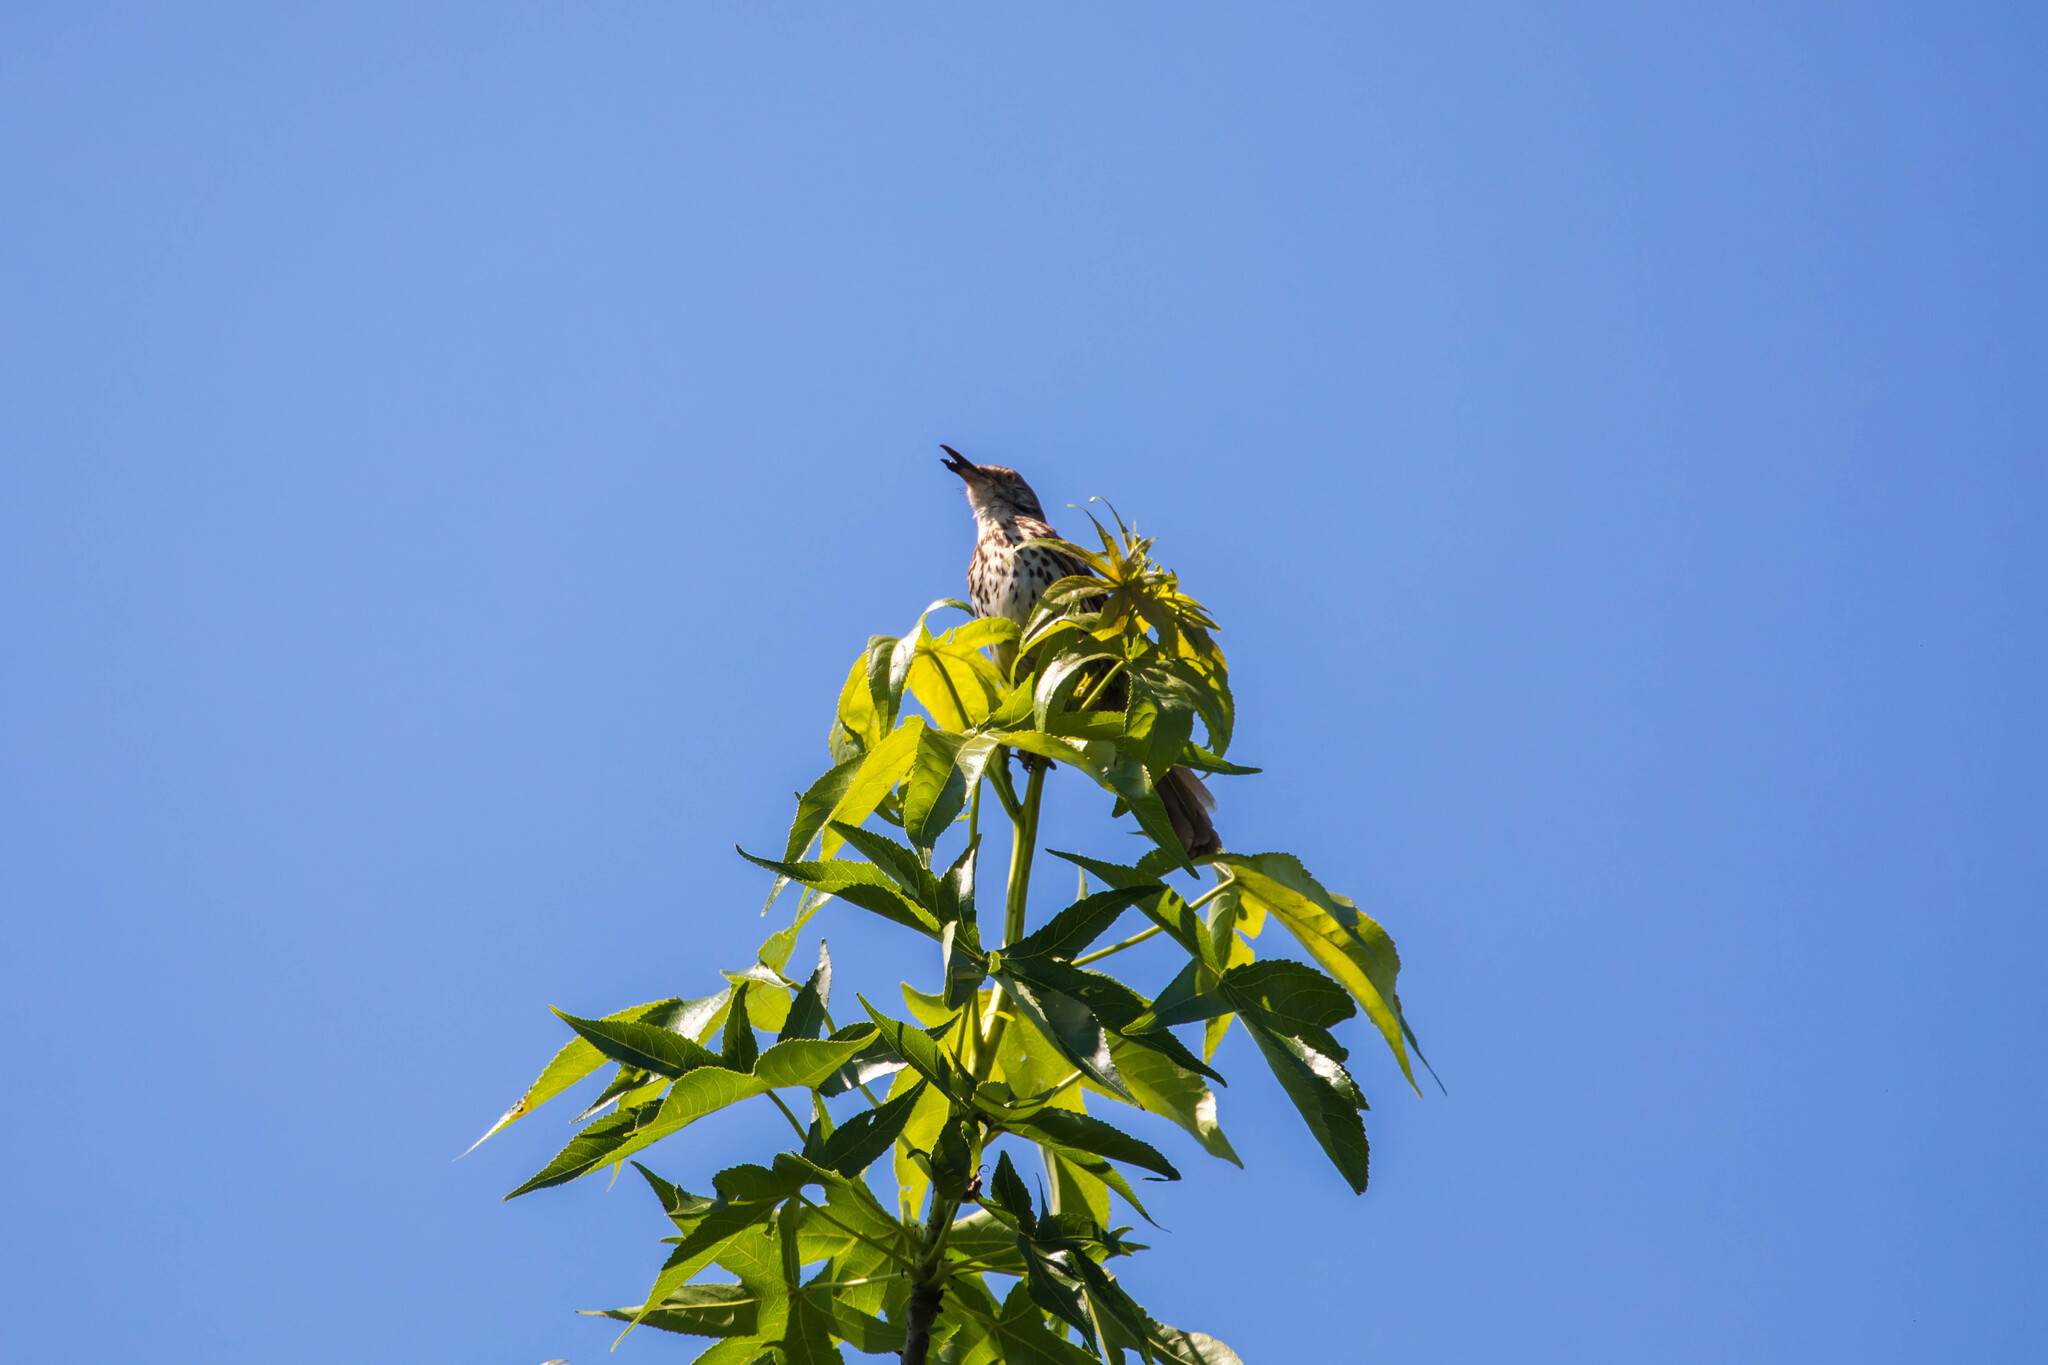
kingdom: Animalia
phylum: Chordata
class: Aves
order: Passeriformes
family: Mimidae
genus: Toxostoma
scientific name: Toxostoma rufum
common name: Brown thrasher
